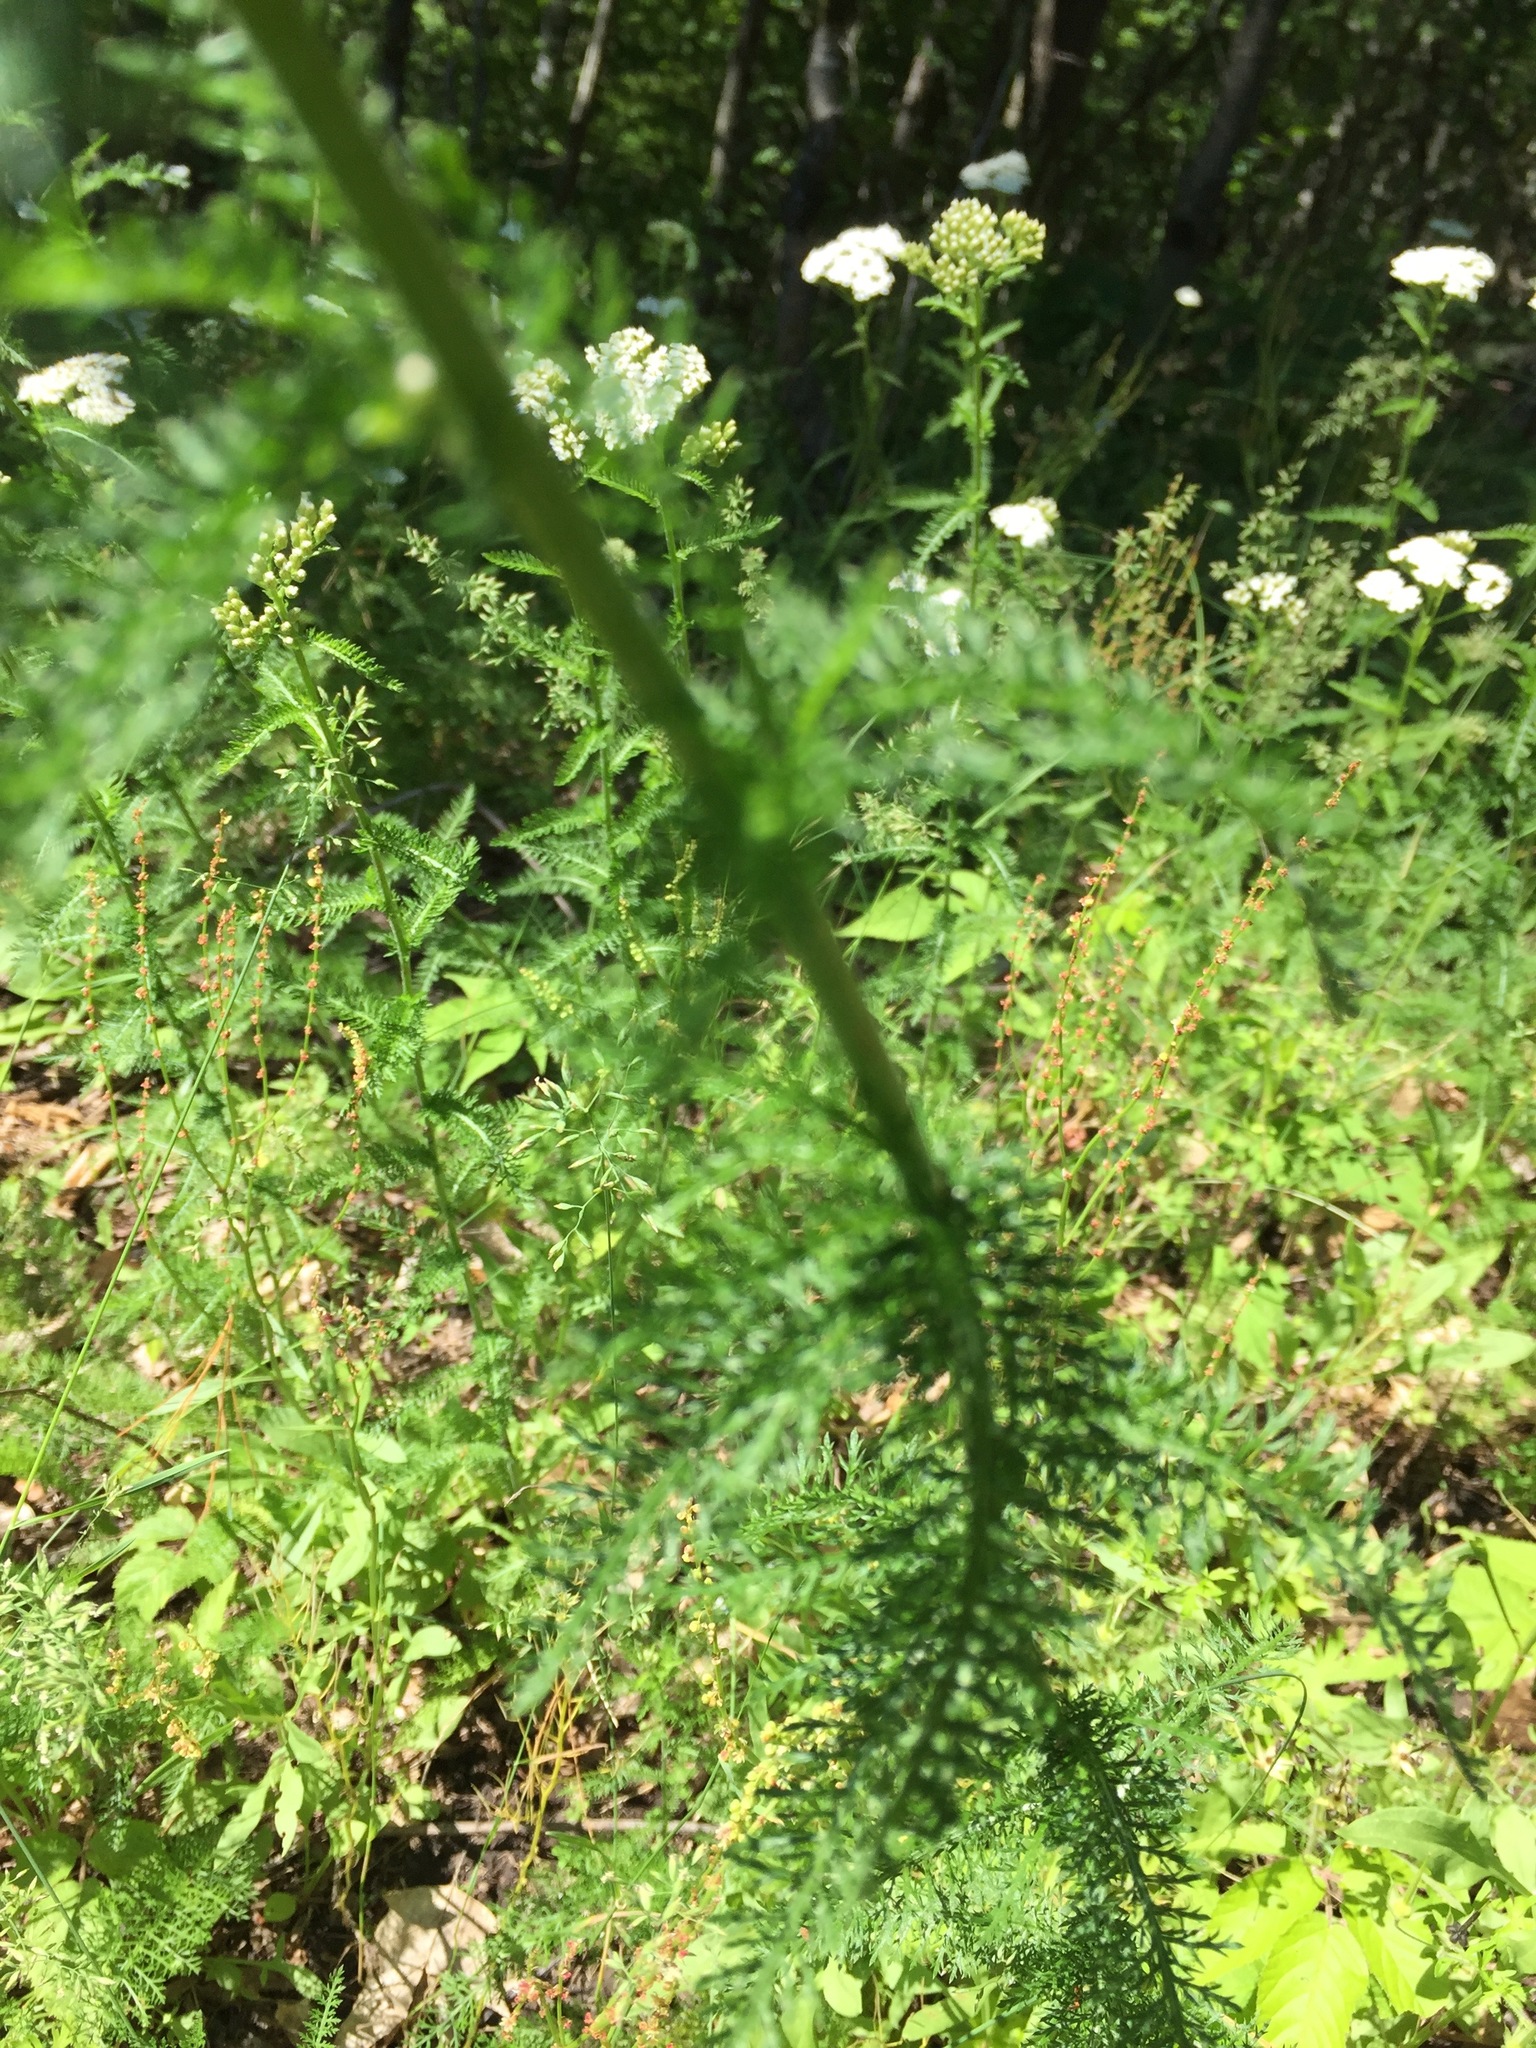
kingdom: Plantae
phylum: Tracheophyta
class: Magnoliopsida
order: Asterales
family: Asteraceae
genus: Achillea
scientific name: Achillea millefolium
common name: Yarrow
